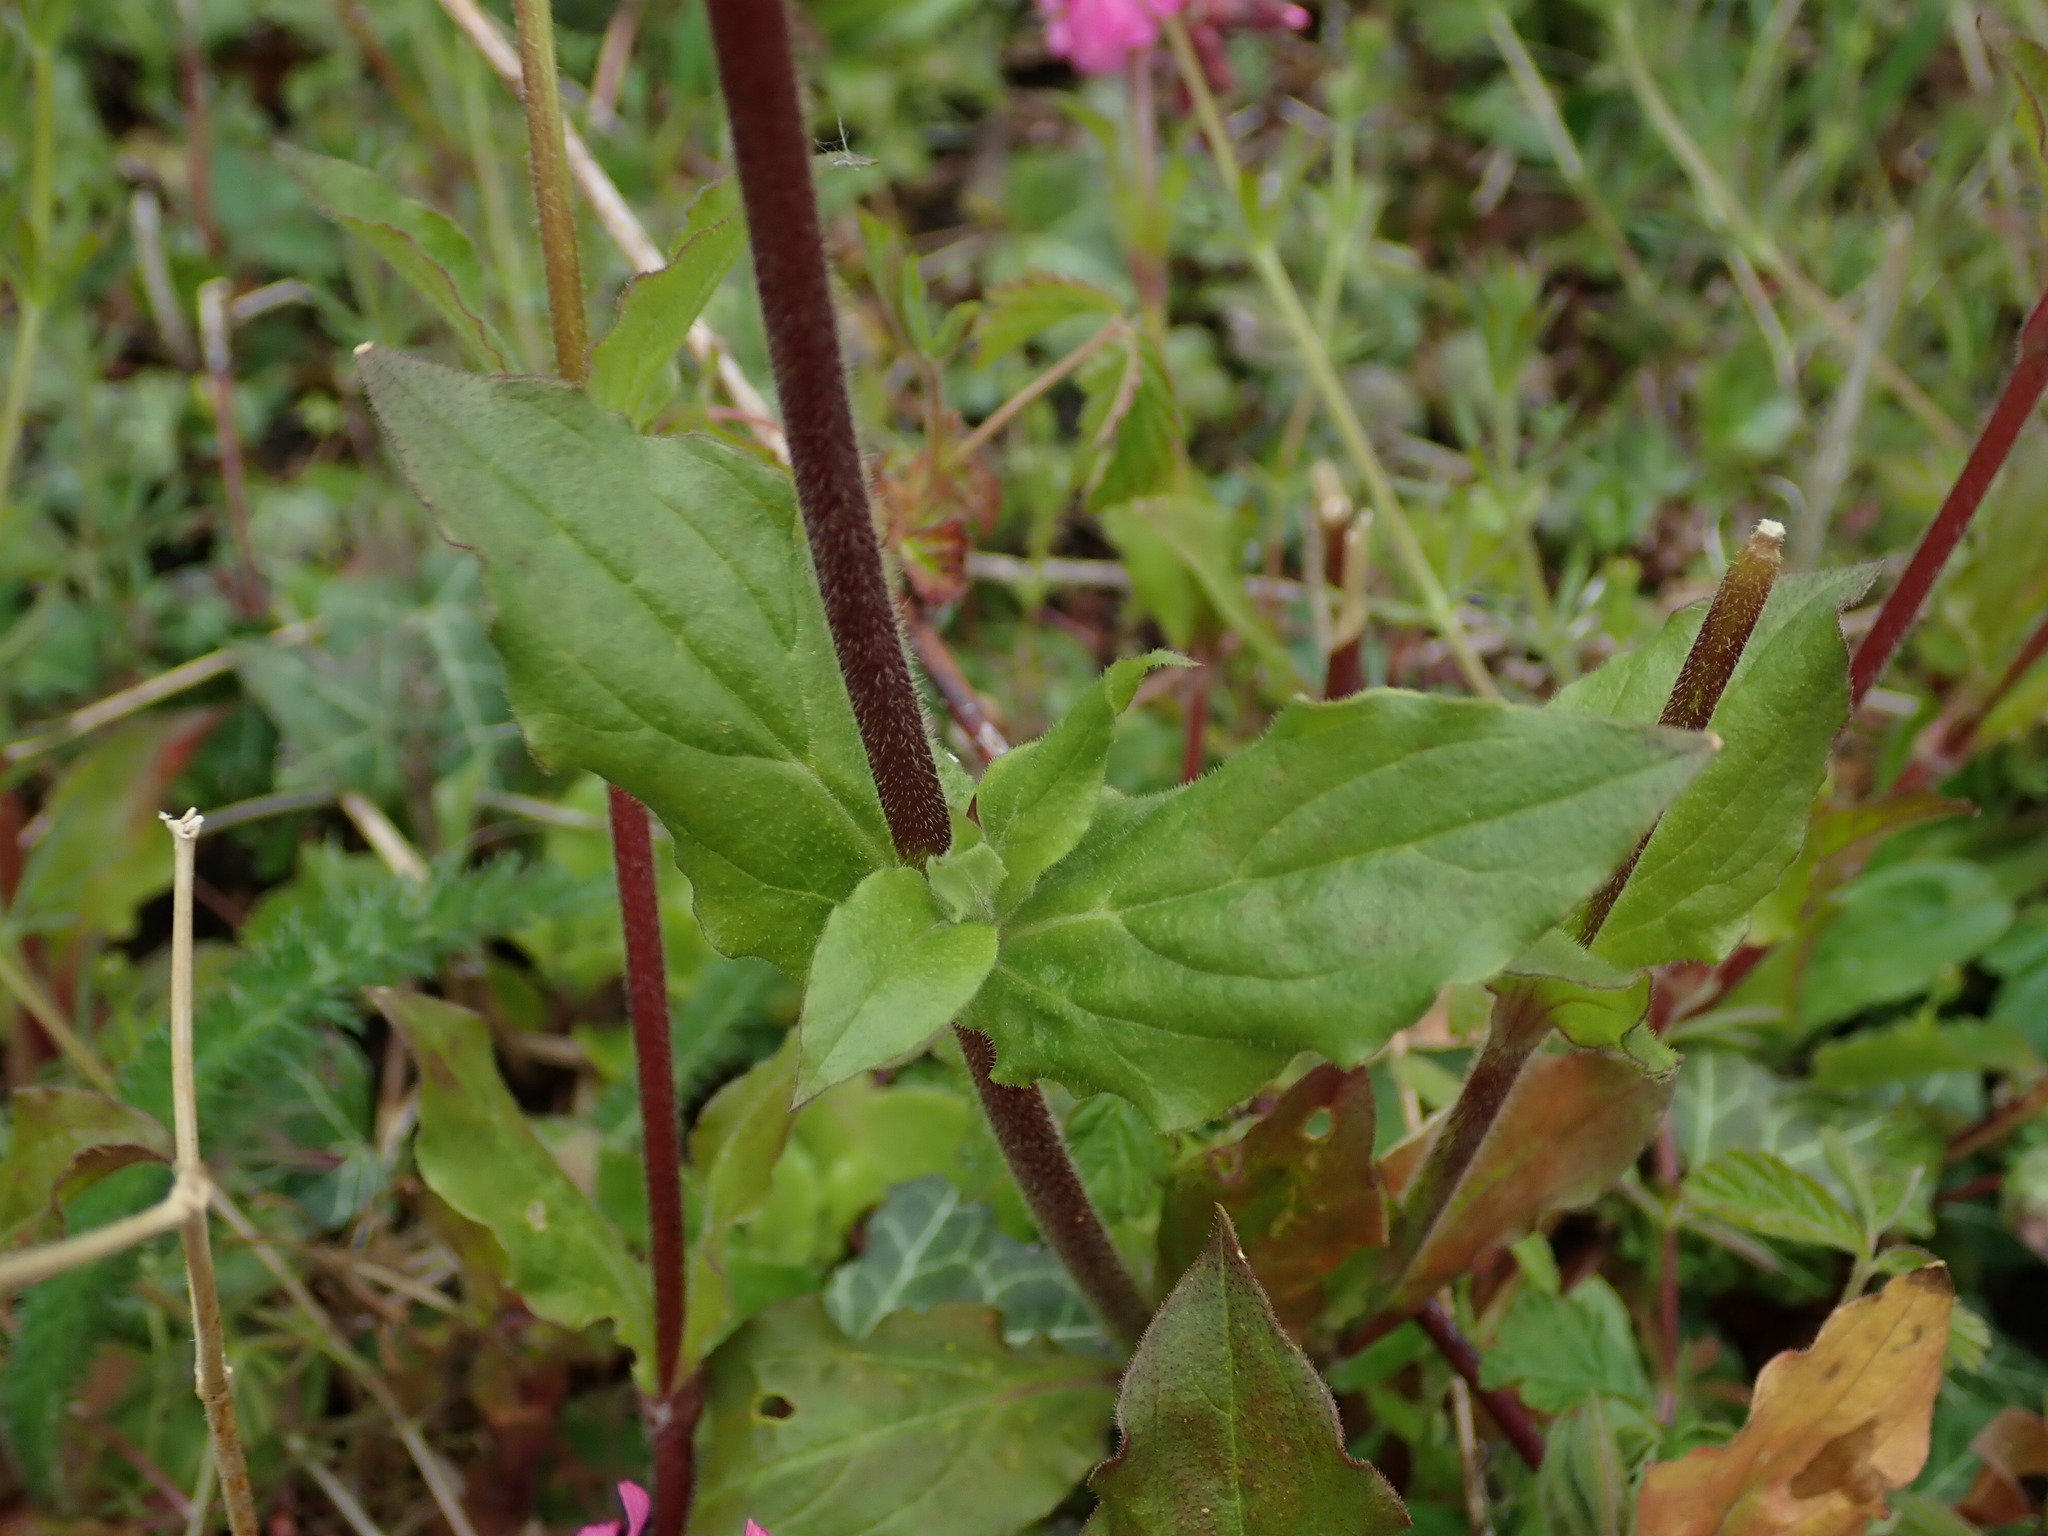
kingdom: Plantae
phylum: Tracheophyta
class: Magnoliopsida
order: Caryophyllales
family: Caryophyllaceae
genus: Silene
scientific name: Silene dioica
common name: Red campion
